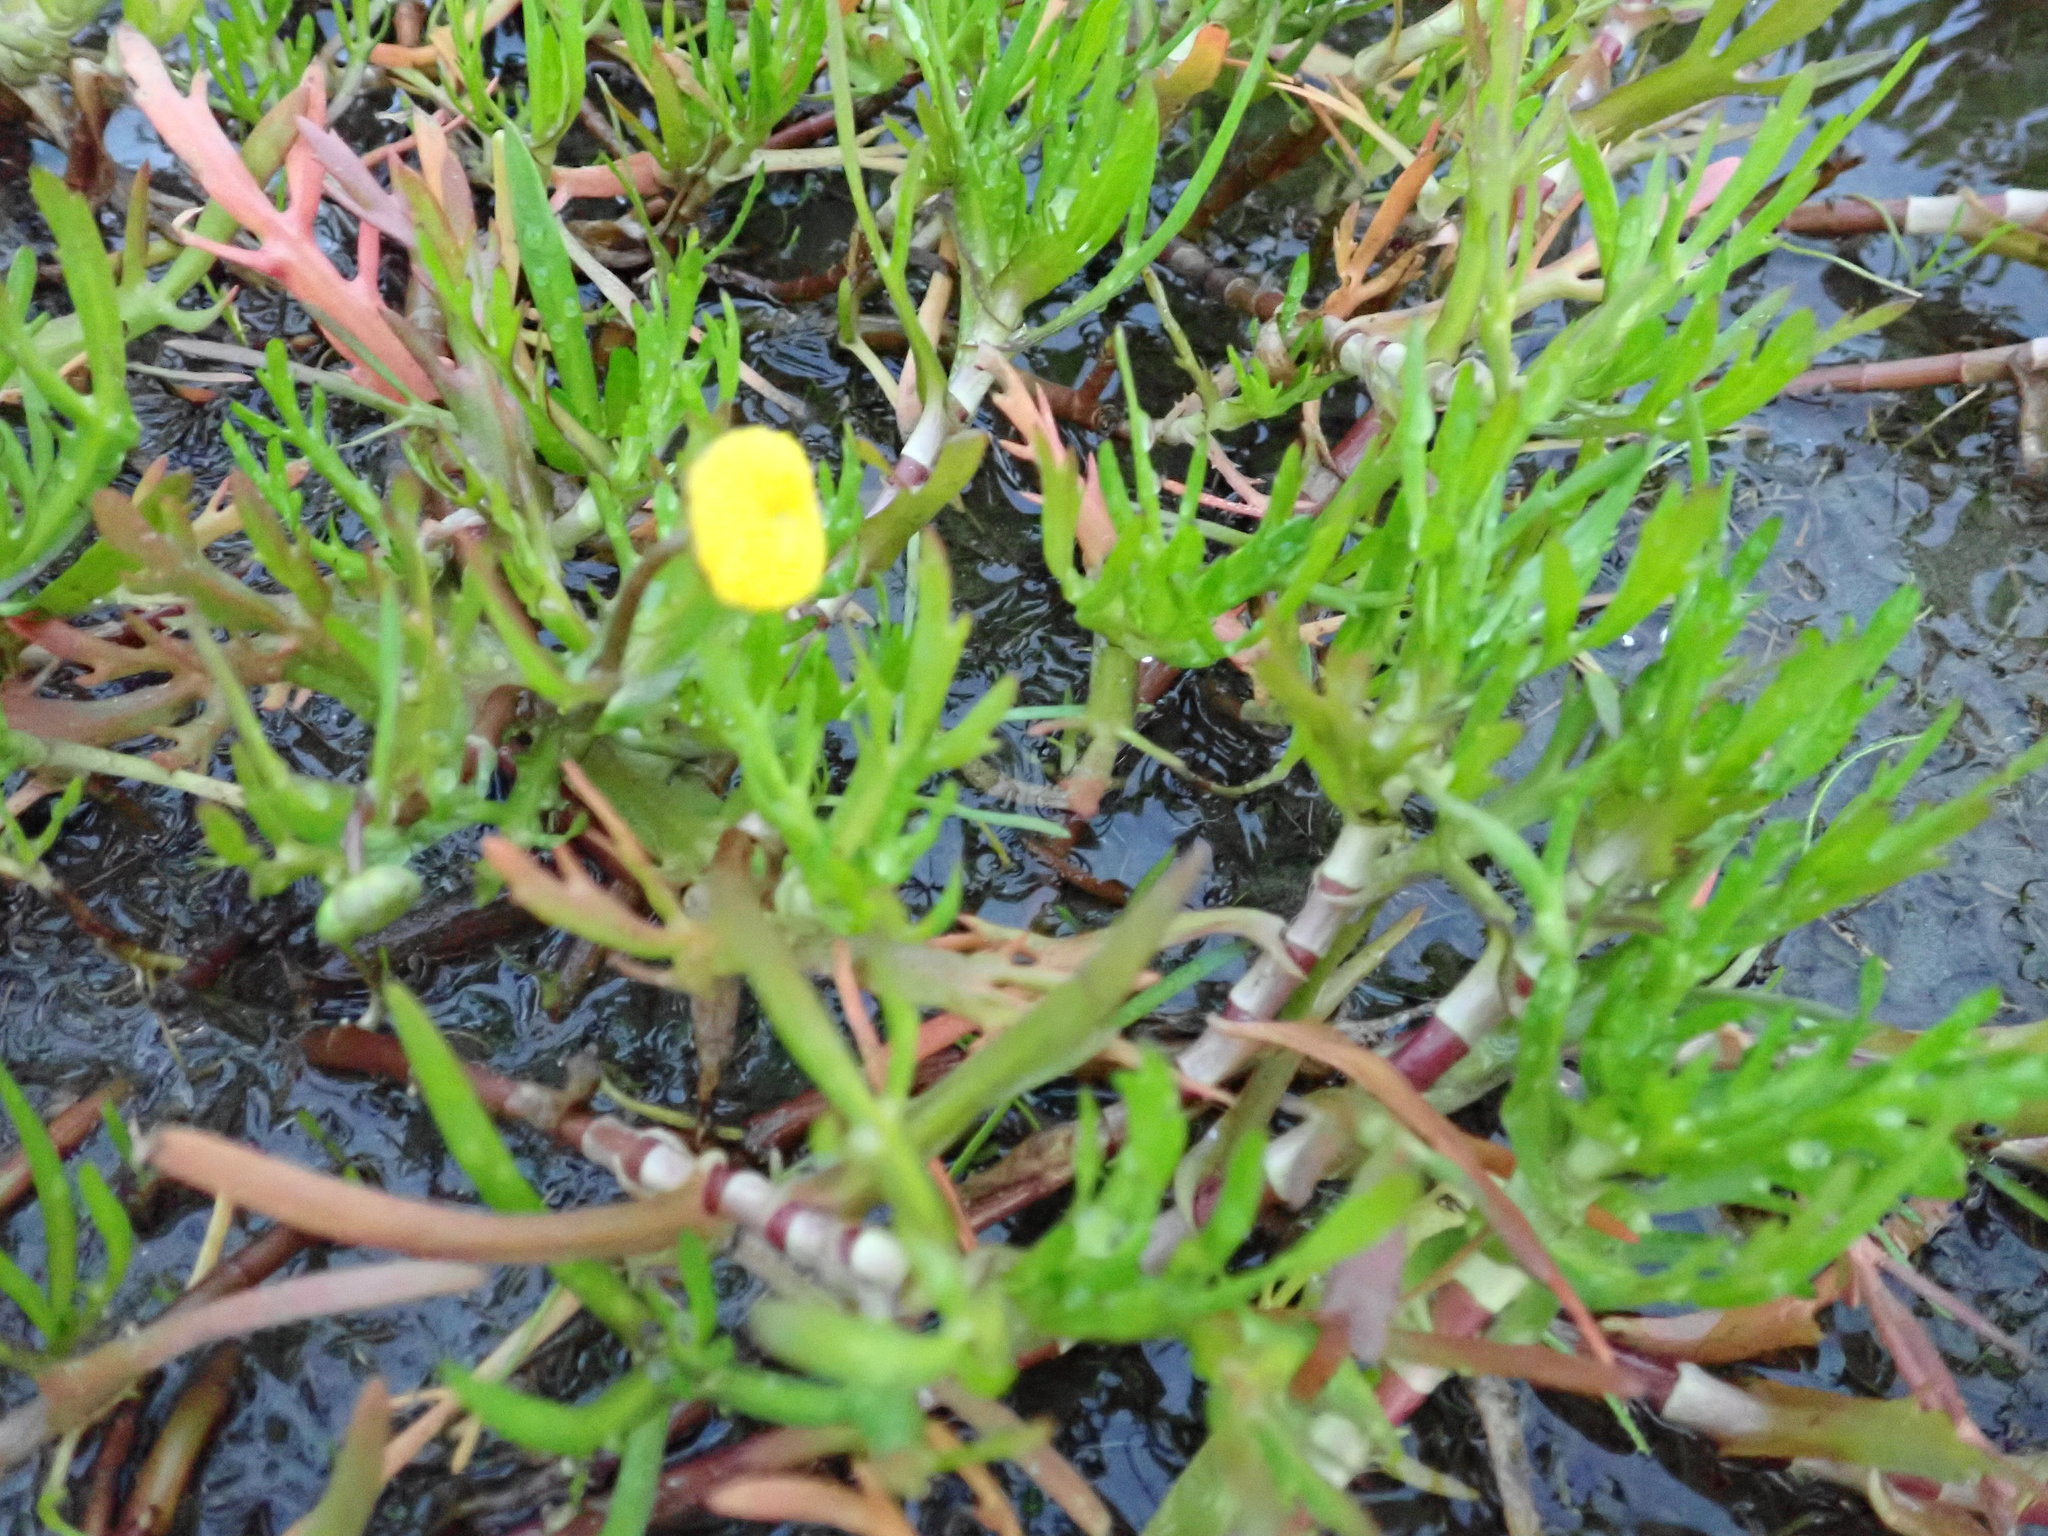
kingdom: Plantae
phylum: Tracheophyta
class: Magnoliopsida
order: Asterales
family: Asteraceae
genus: Cotula
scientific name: Cotula coronopifolia
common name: Buttonweed
